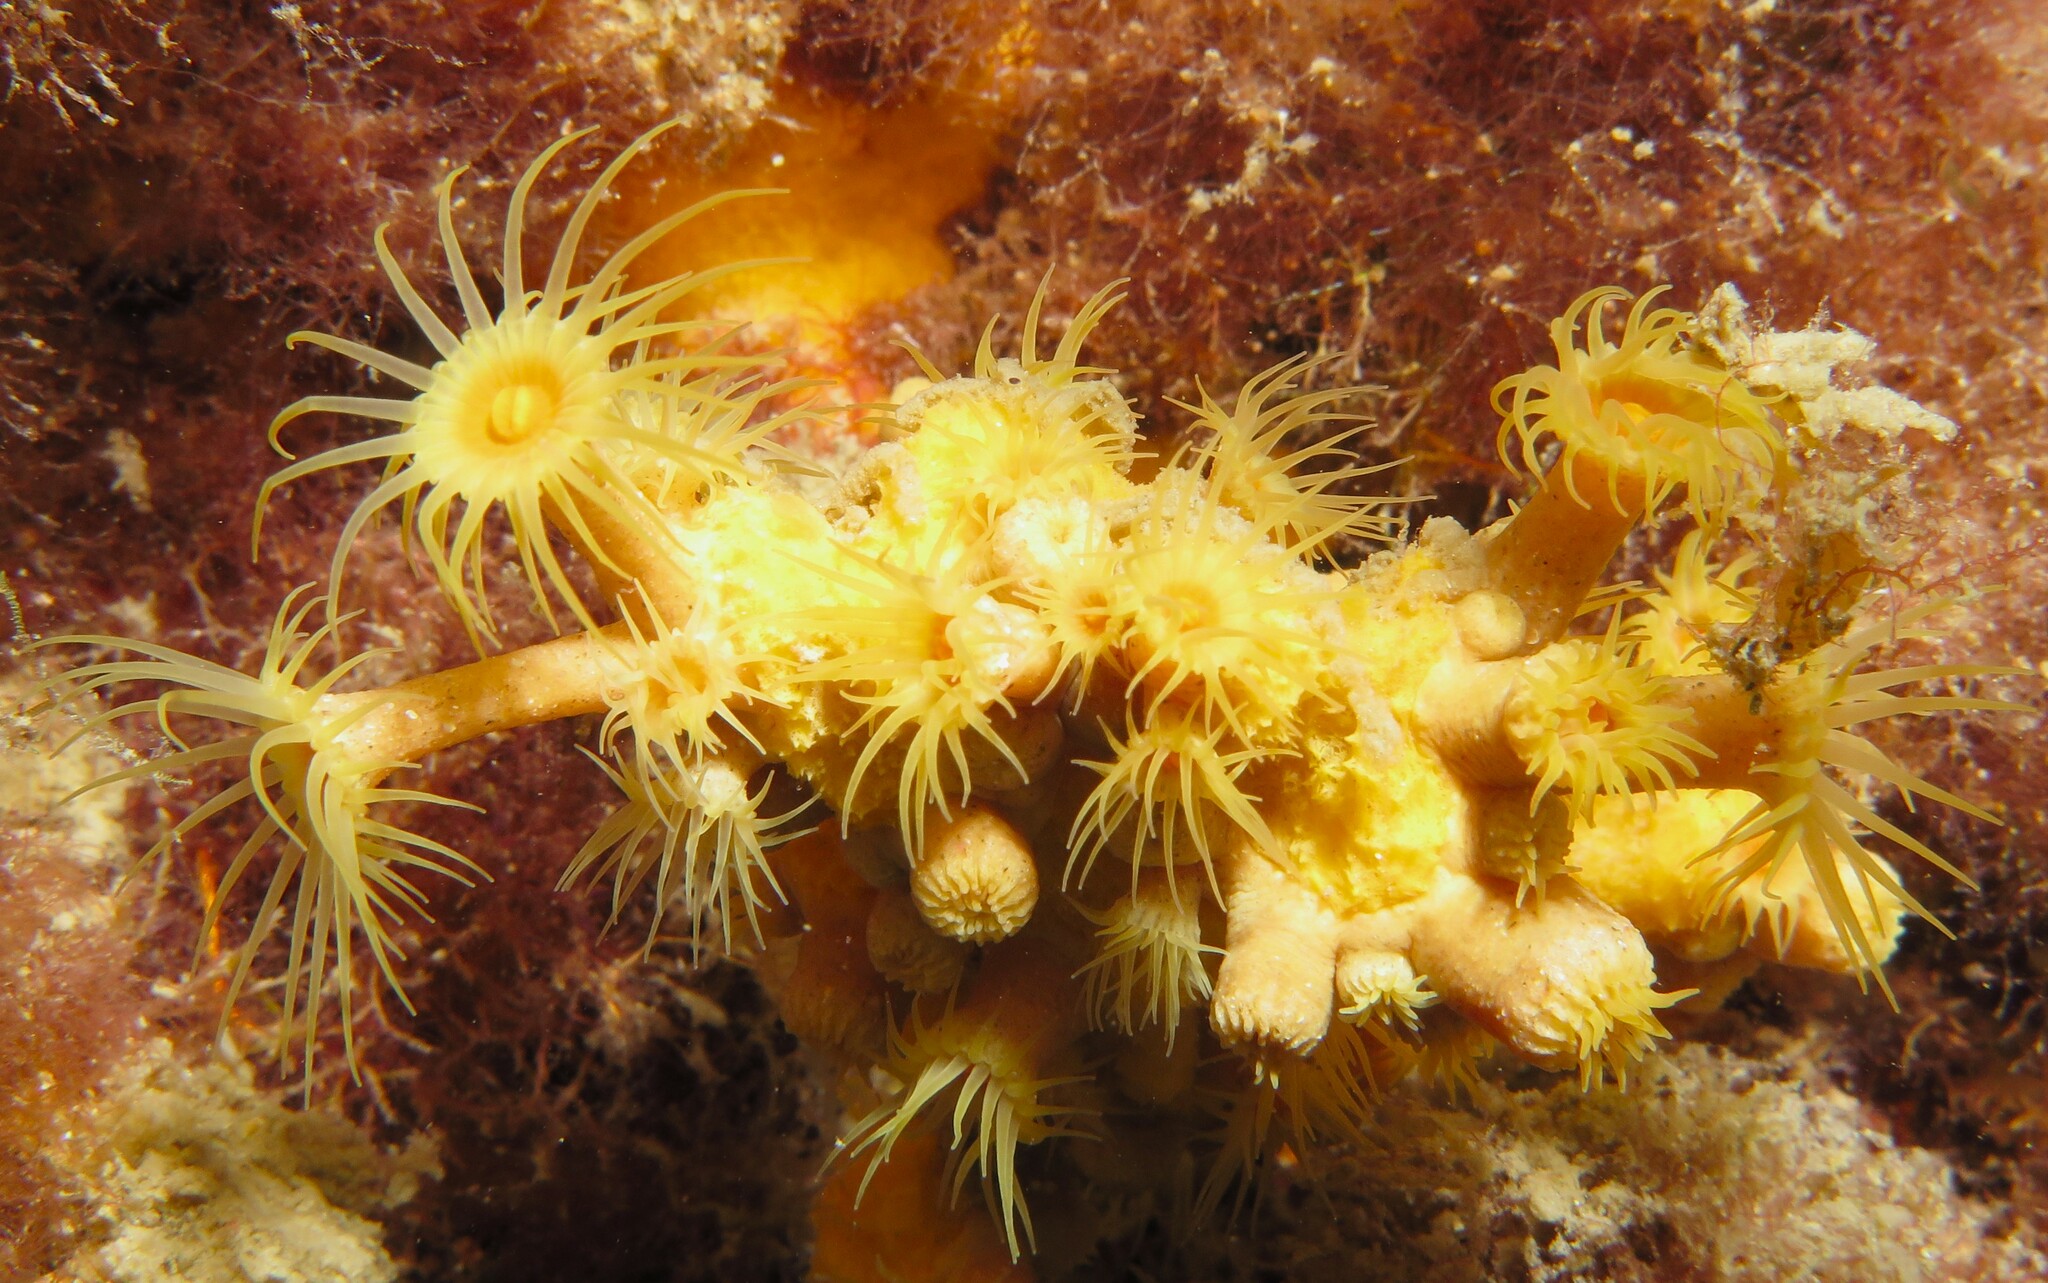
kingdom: Animalia
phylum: Cnidaria
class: Anthozoa
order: Zoantharia
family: Parazoanthidae
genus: Parazoanthus
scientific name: Parazoanthus axinellae
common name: Yellow cluster anemone
